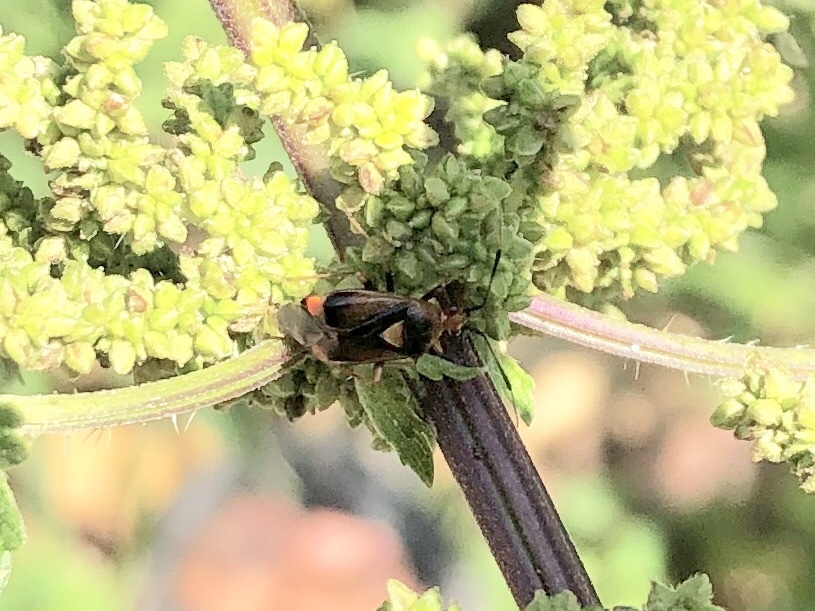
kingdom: Animalia
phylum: Arthropoda
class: Insecta
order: Hemiptera
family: Miridae
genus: Deraeocoris
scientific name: Deraeocoris ruber
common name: Plant bug
